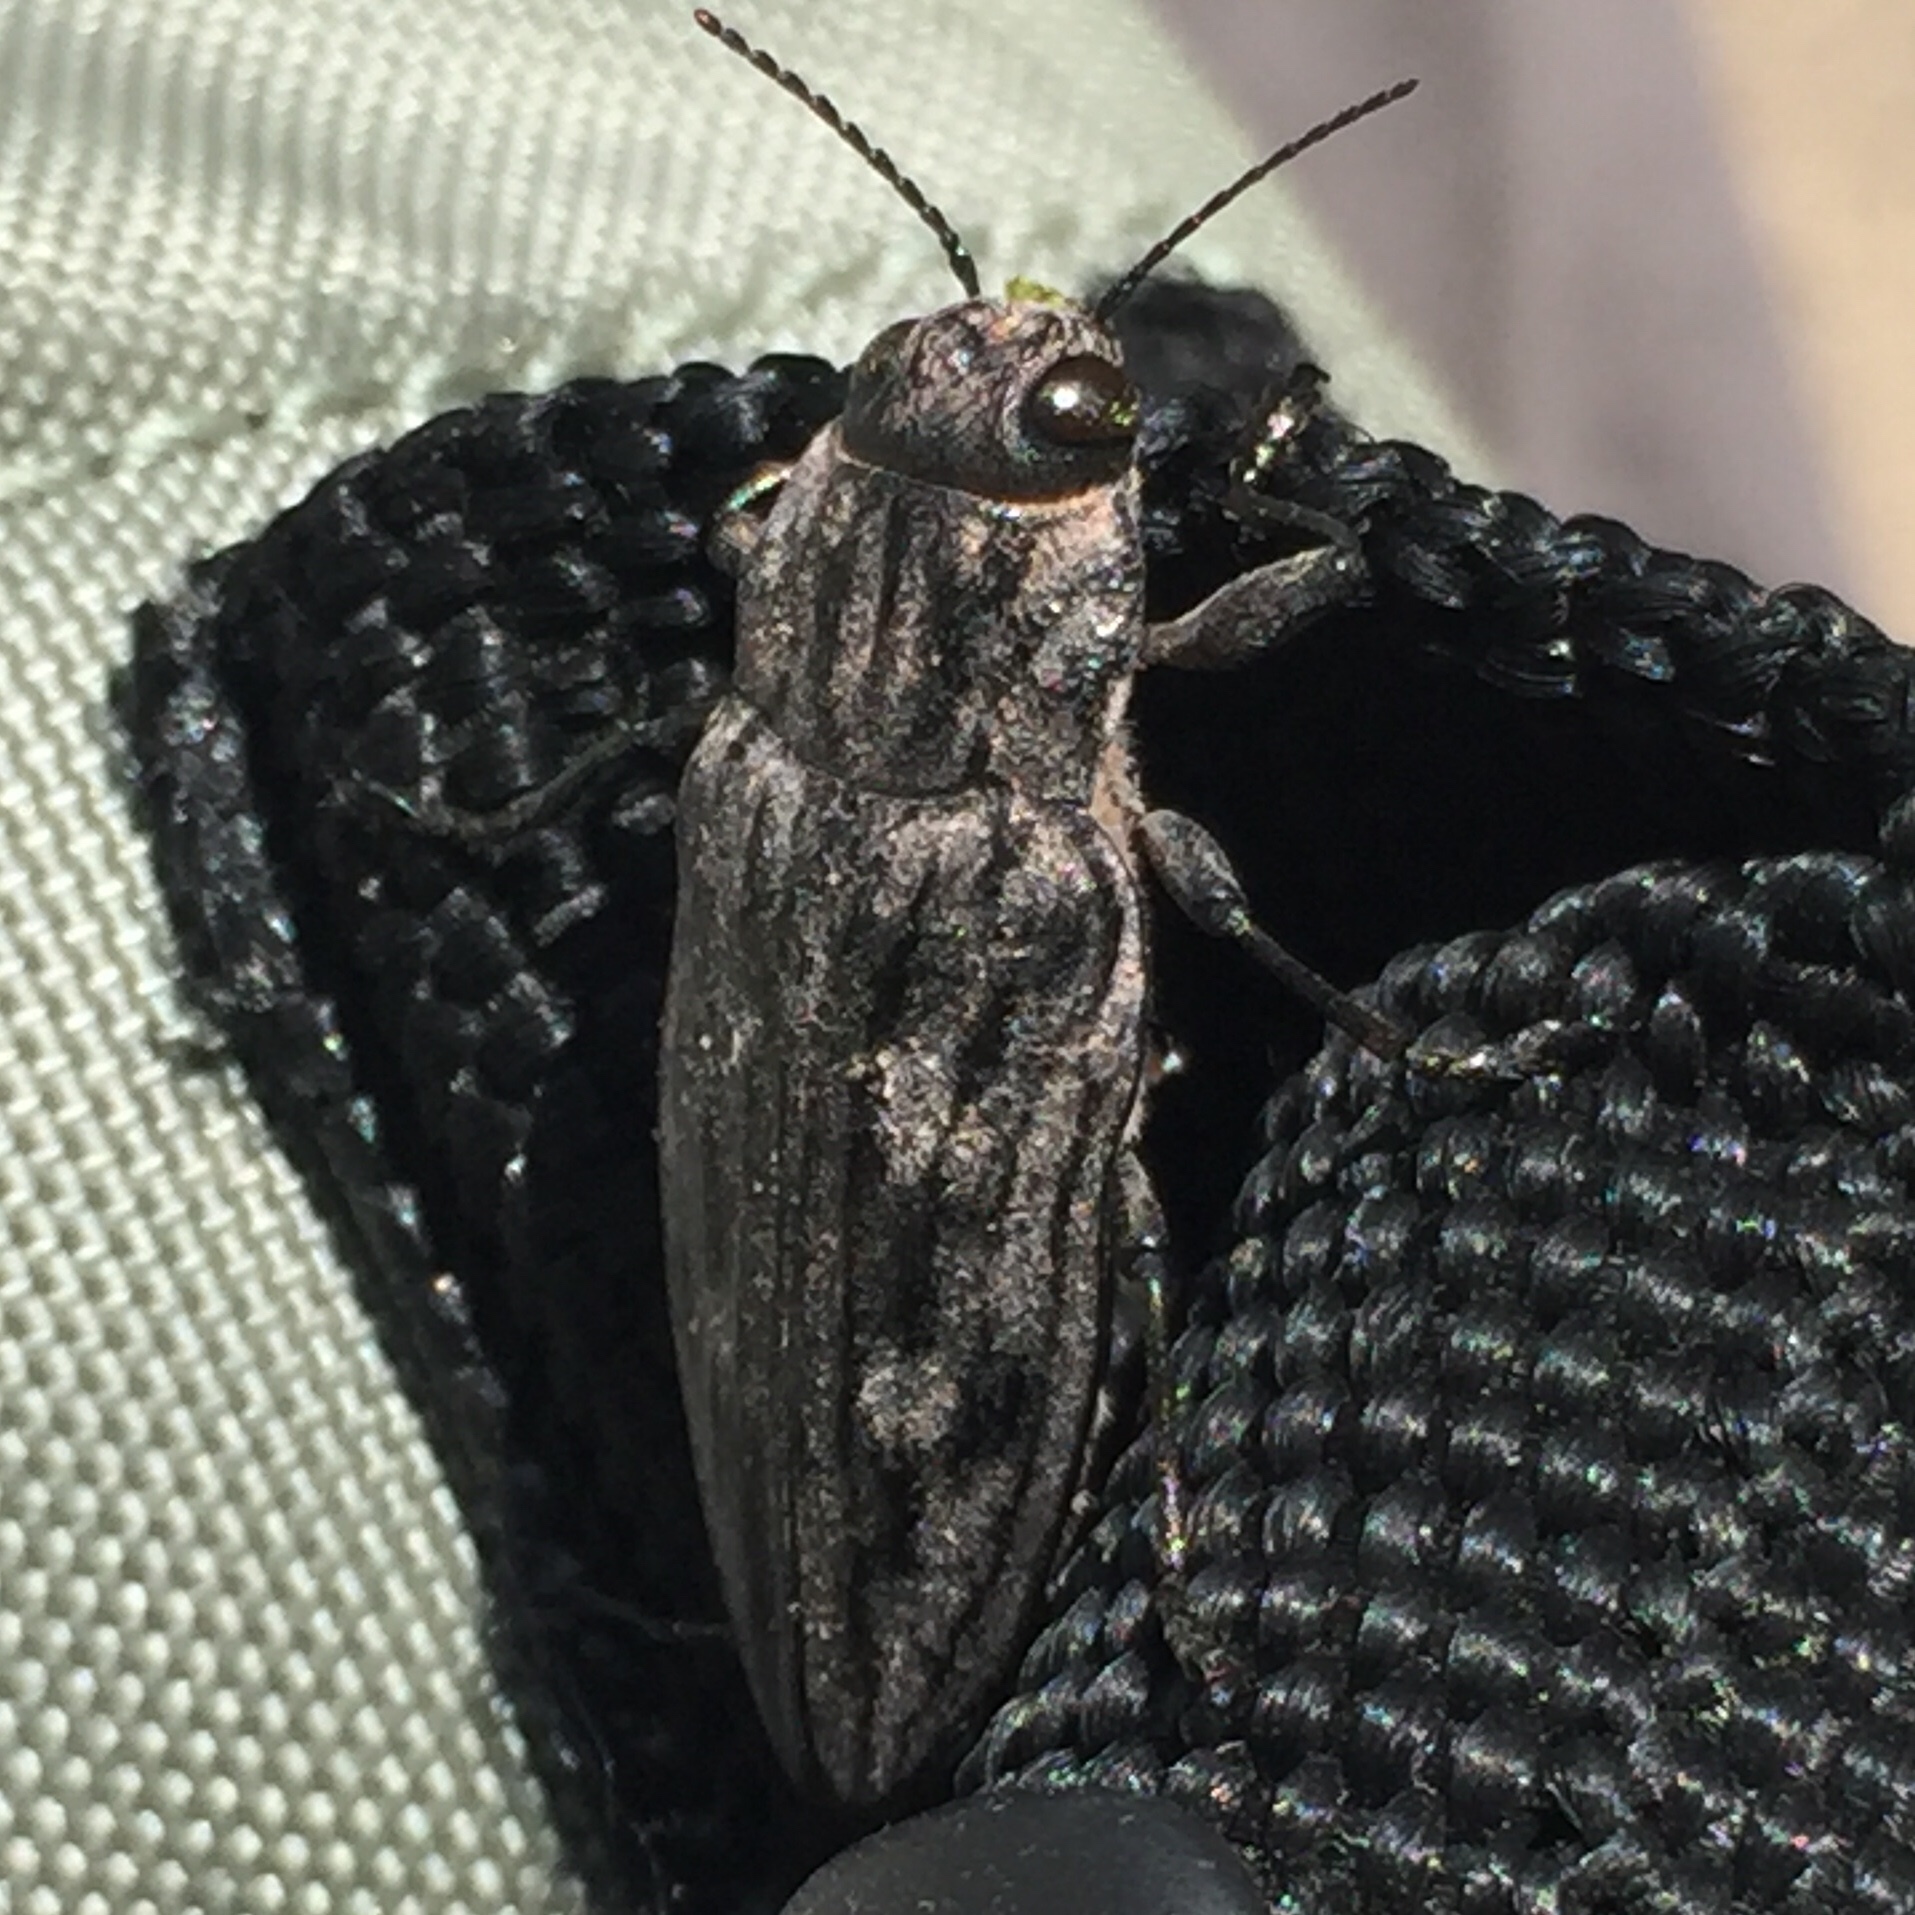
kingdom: Animalia
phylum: Arthropoda
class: Insecta
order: Coleoptera
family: Buprestidae
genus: Chalcophora
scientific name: Chalcophora virginiensis
